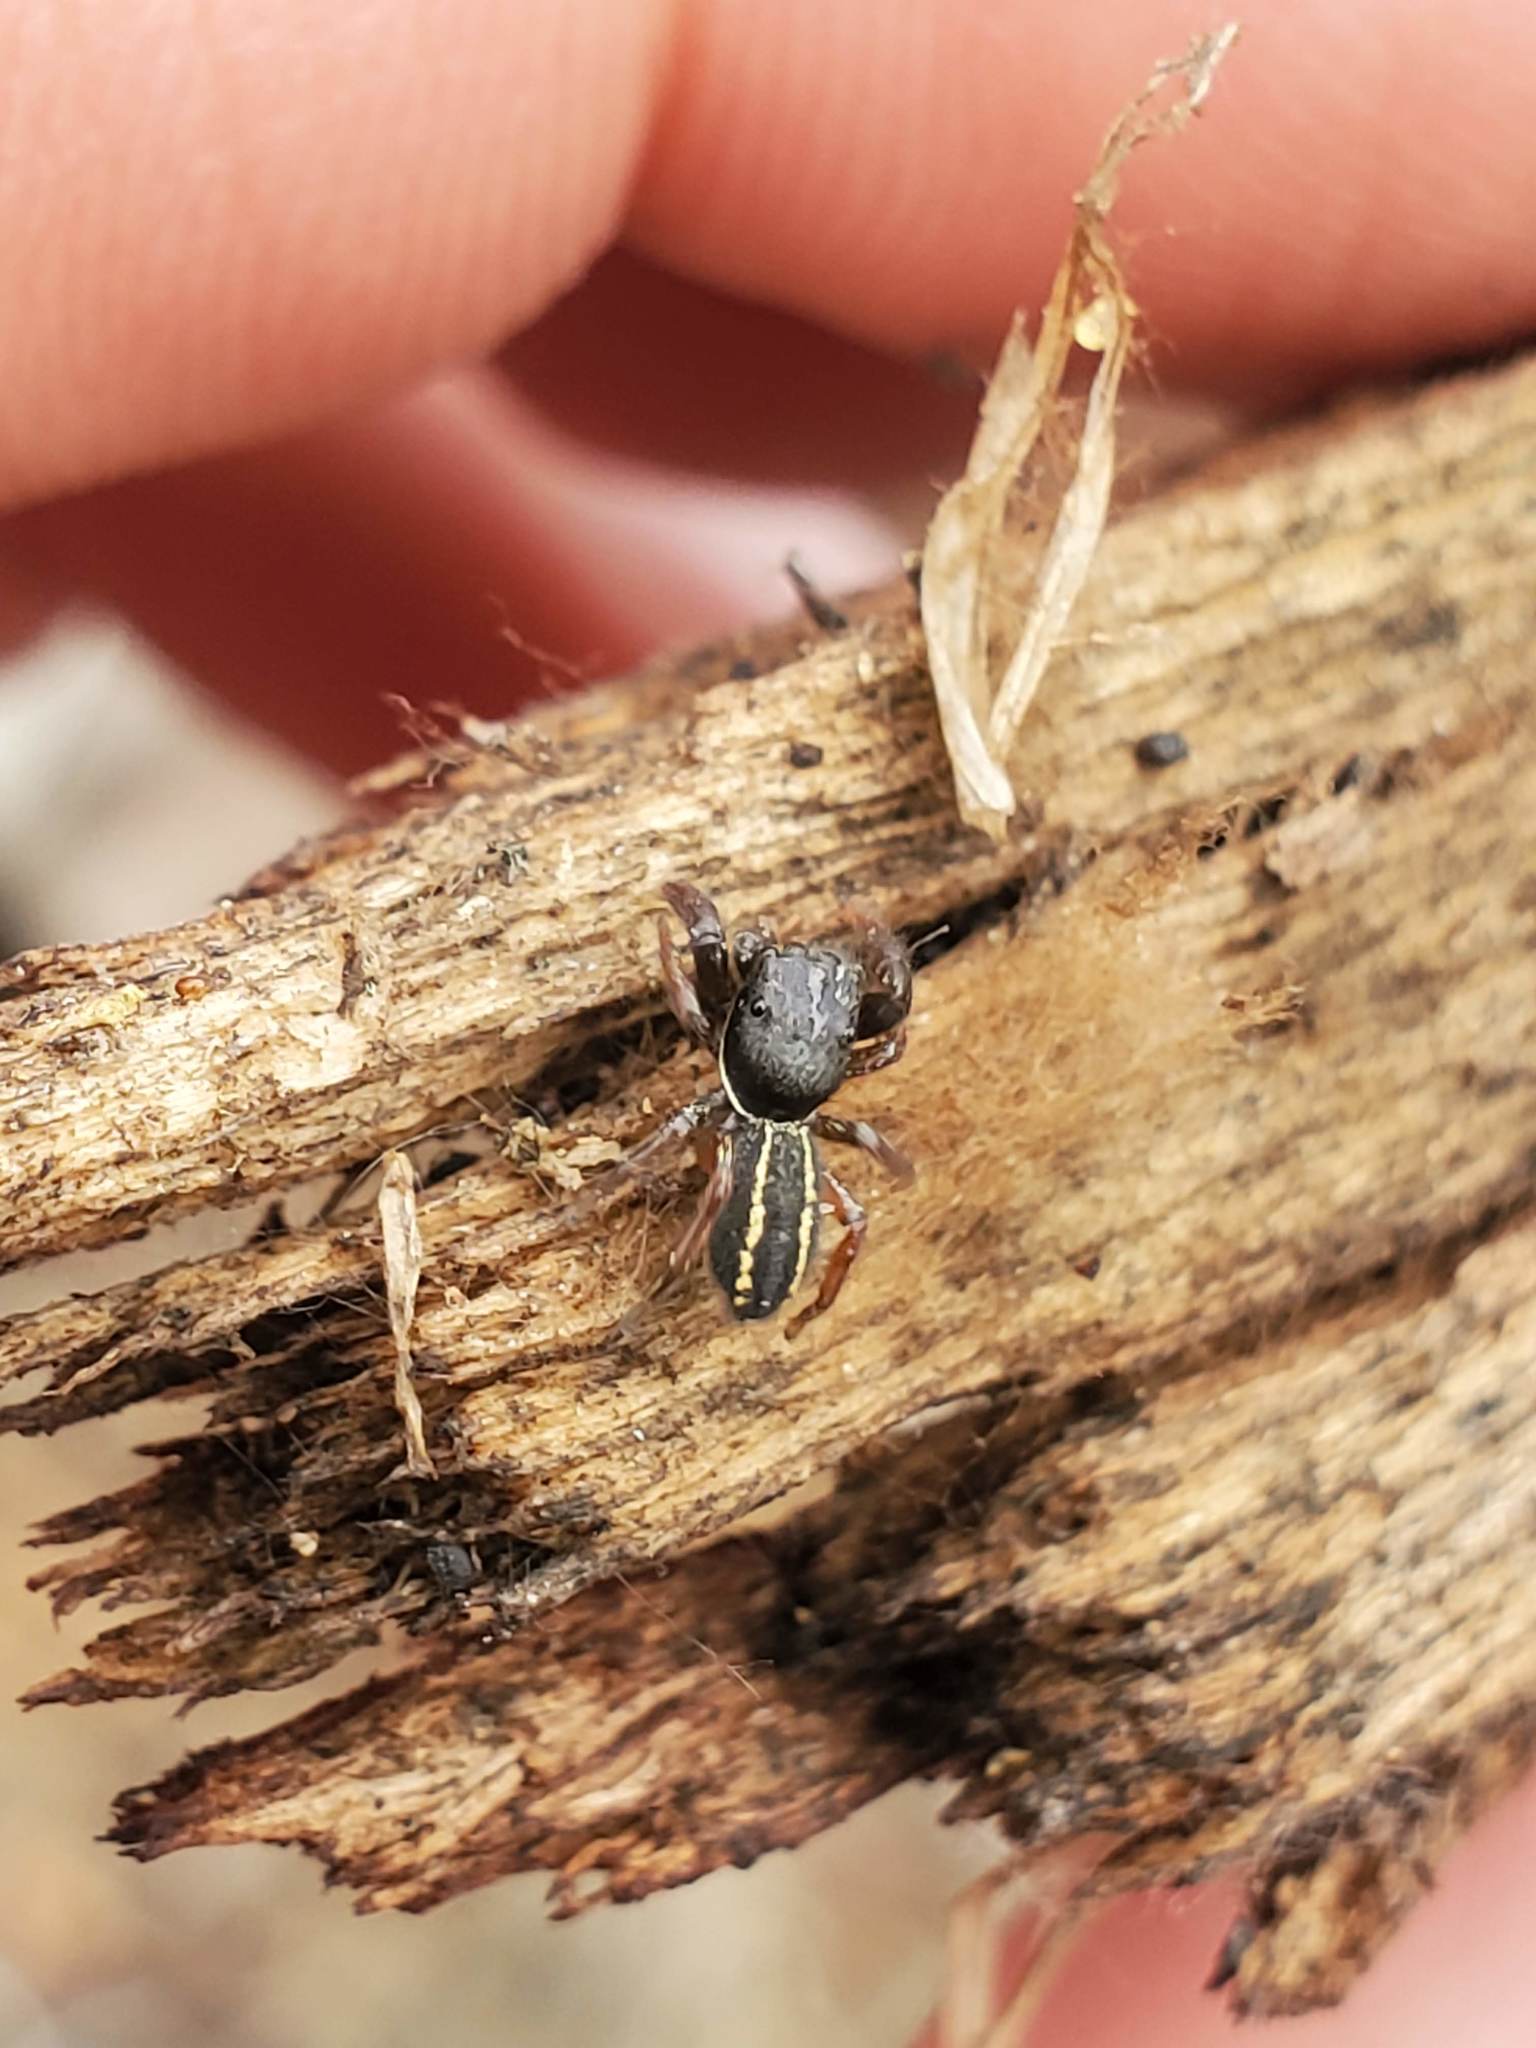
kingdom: Animalia
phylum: Arthropoda
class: Arachnida
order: Araneae
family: Salticidae
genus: Metacyrba
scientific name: Metacyrba taeniola
